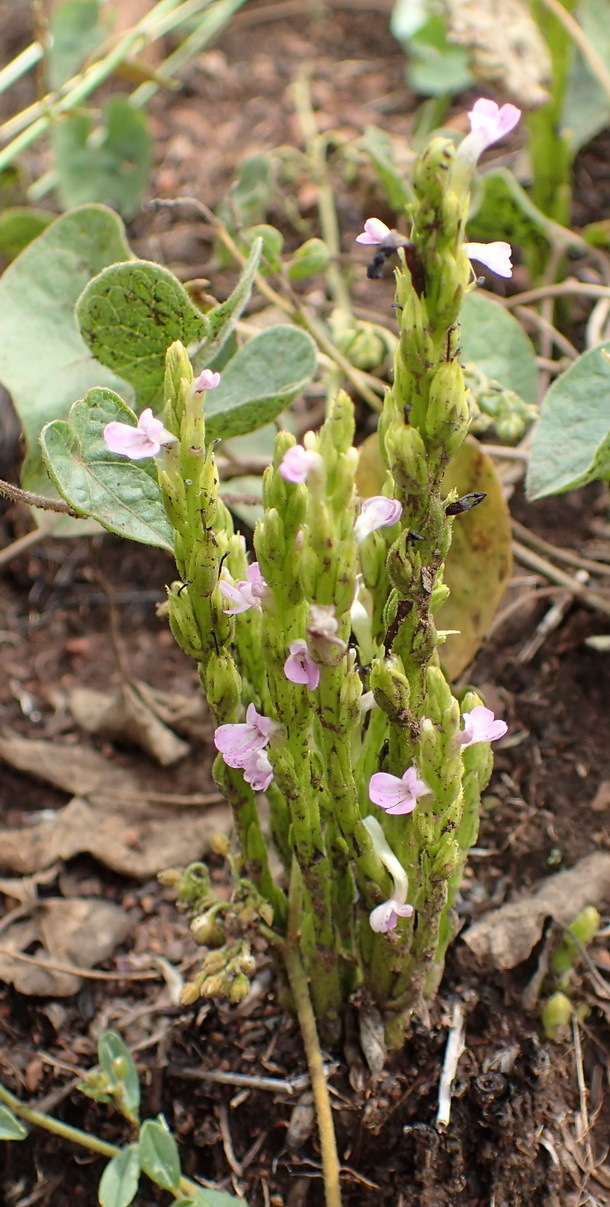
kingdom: Plantae
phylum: Tracheophyta
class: Magnoliopsida
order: Lamiales
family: Orobanchaceae
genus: Striga
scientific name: Striga bilabiata
